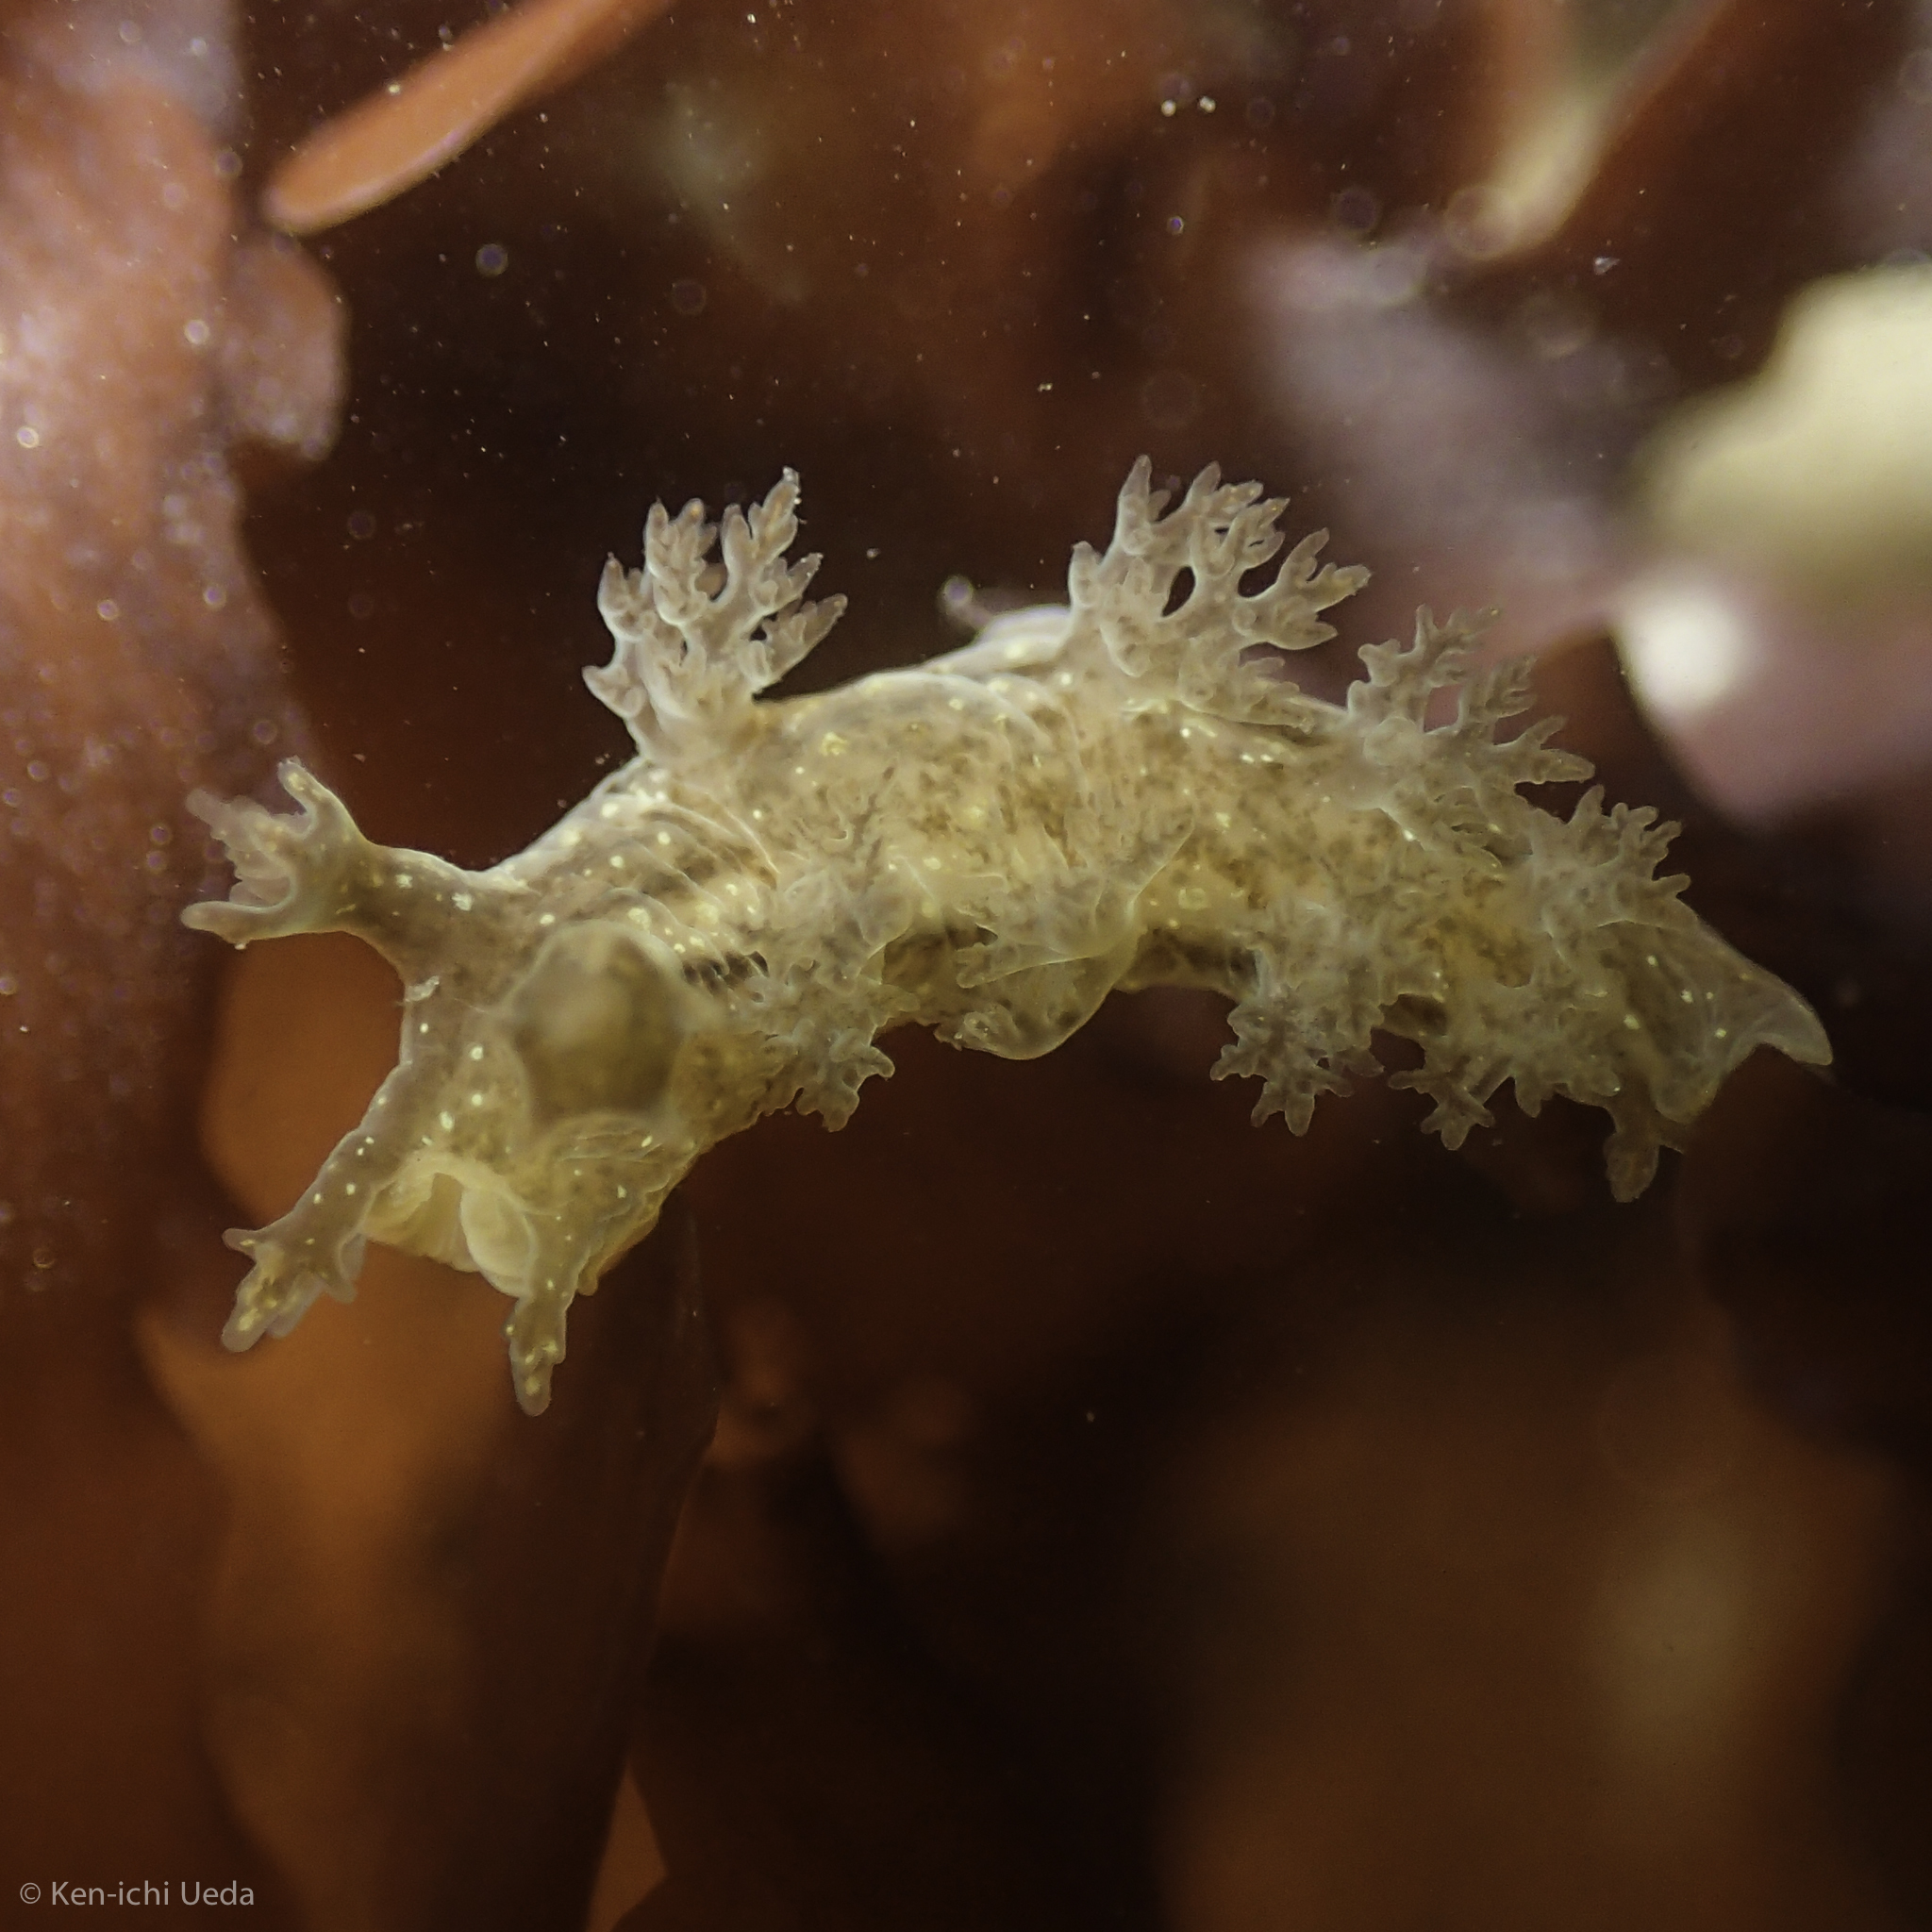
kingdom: Animalia
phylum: Mollusca
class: Gastropoda
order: Nudibranchia
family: Dendronotidae
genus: Dendronotus
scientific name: Dendronotus subramosus
